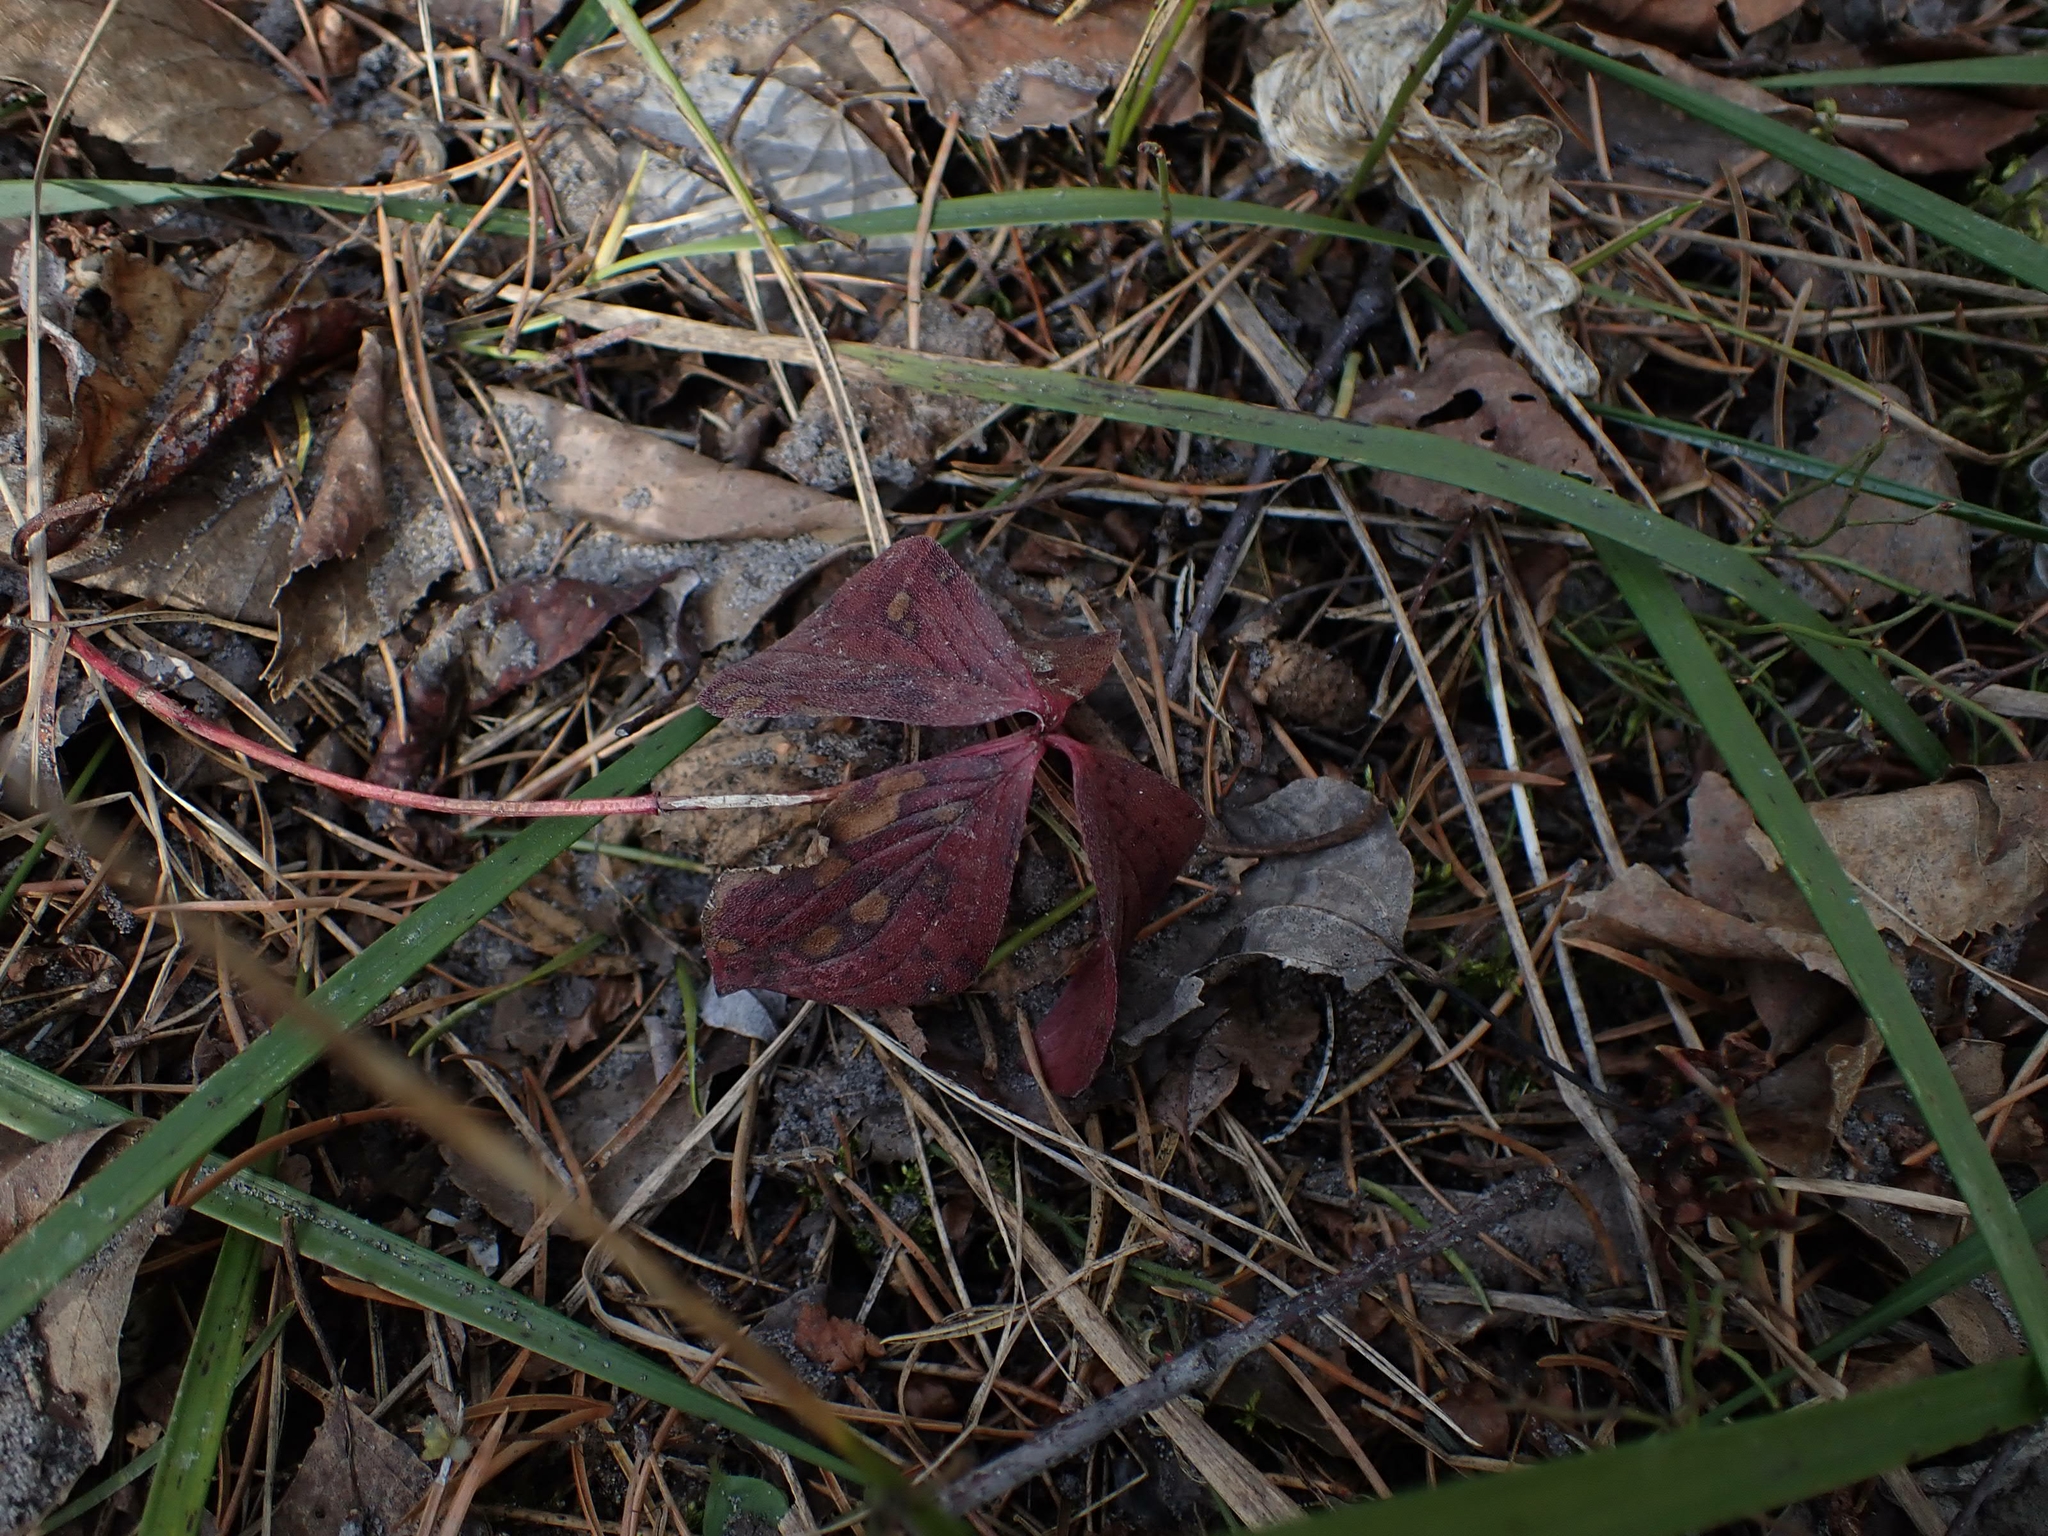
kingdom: Plantae
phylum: Tracheophyta
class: Magnoliopsida
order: Cornales
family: Cornaceae
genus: Cornus
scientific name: Cornus canadensis
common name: Creeping dogwood
